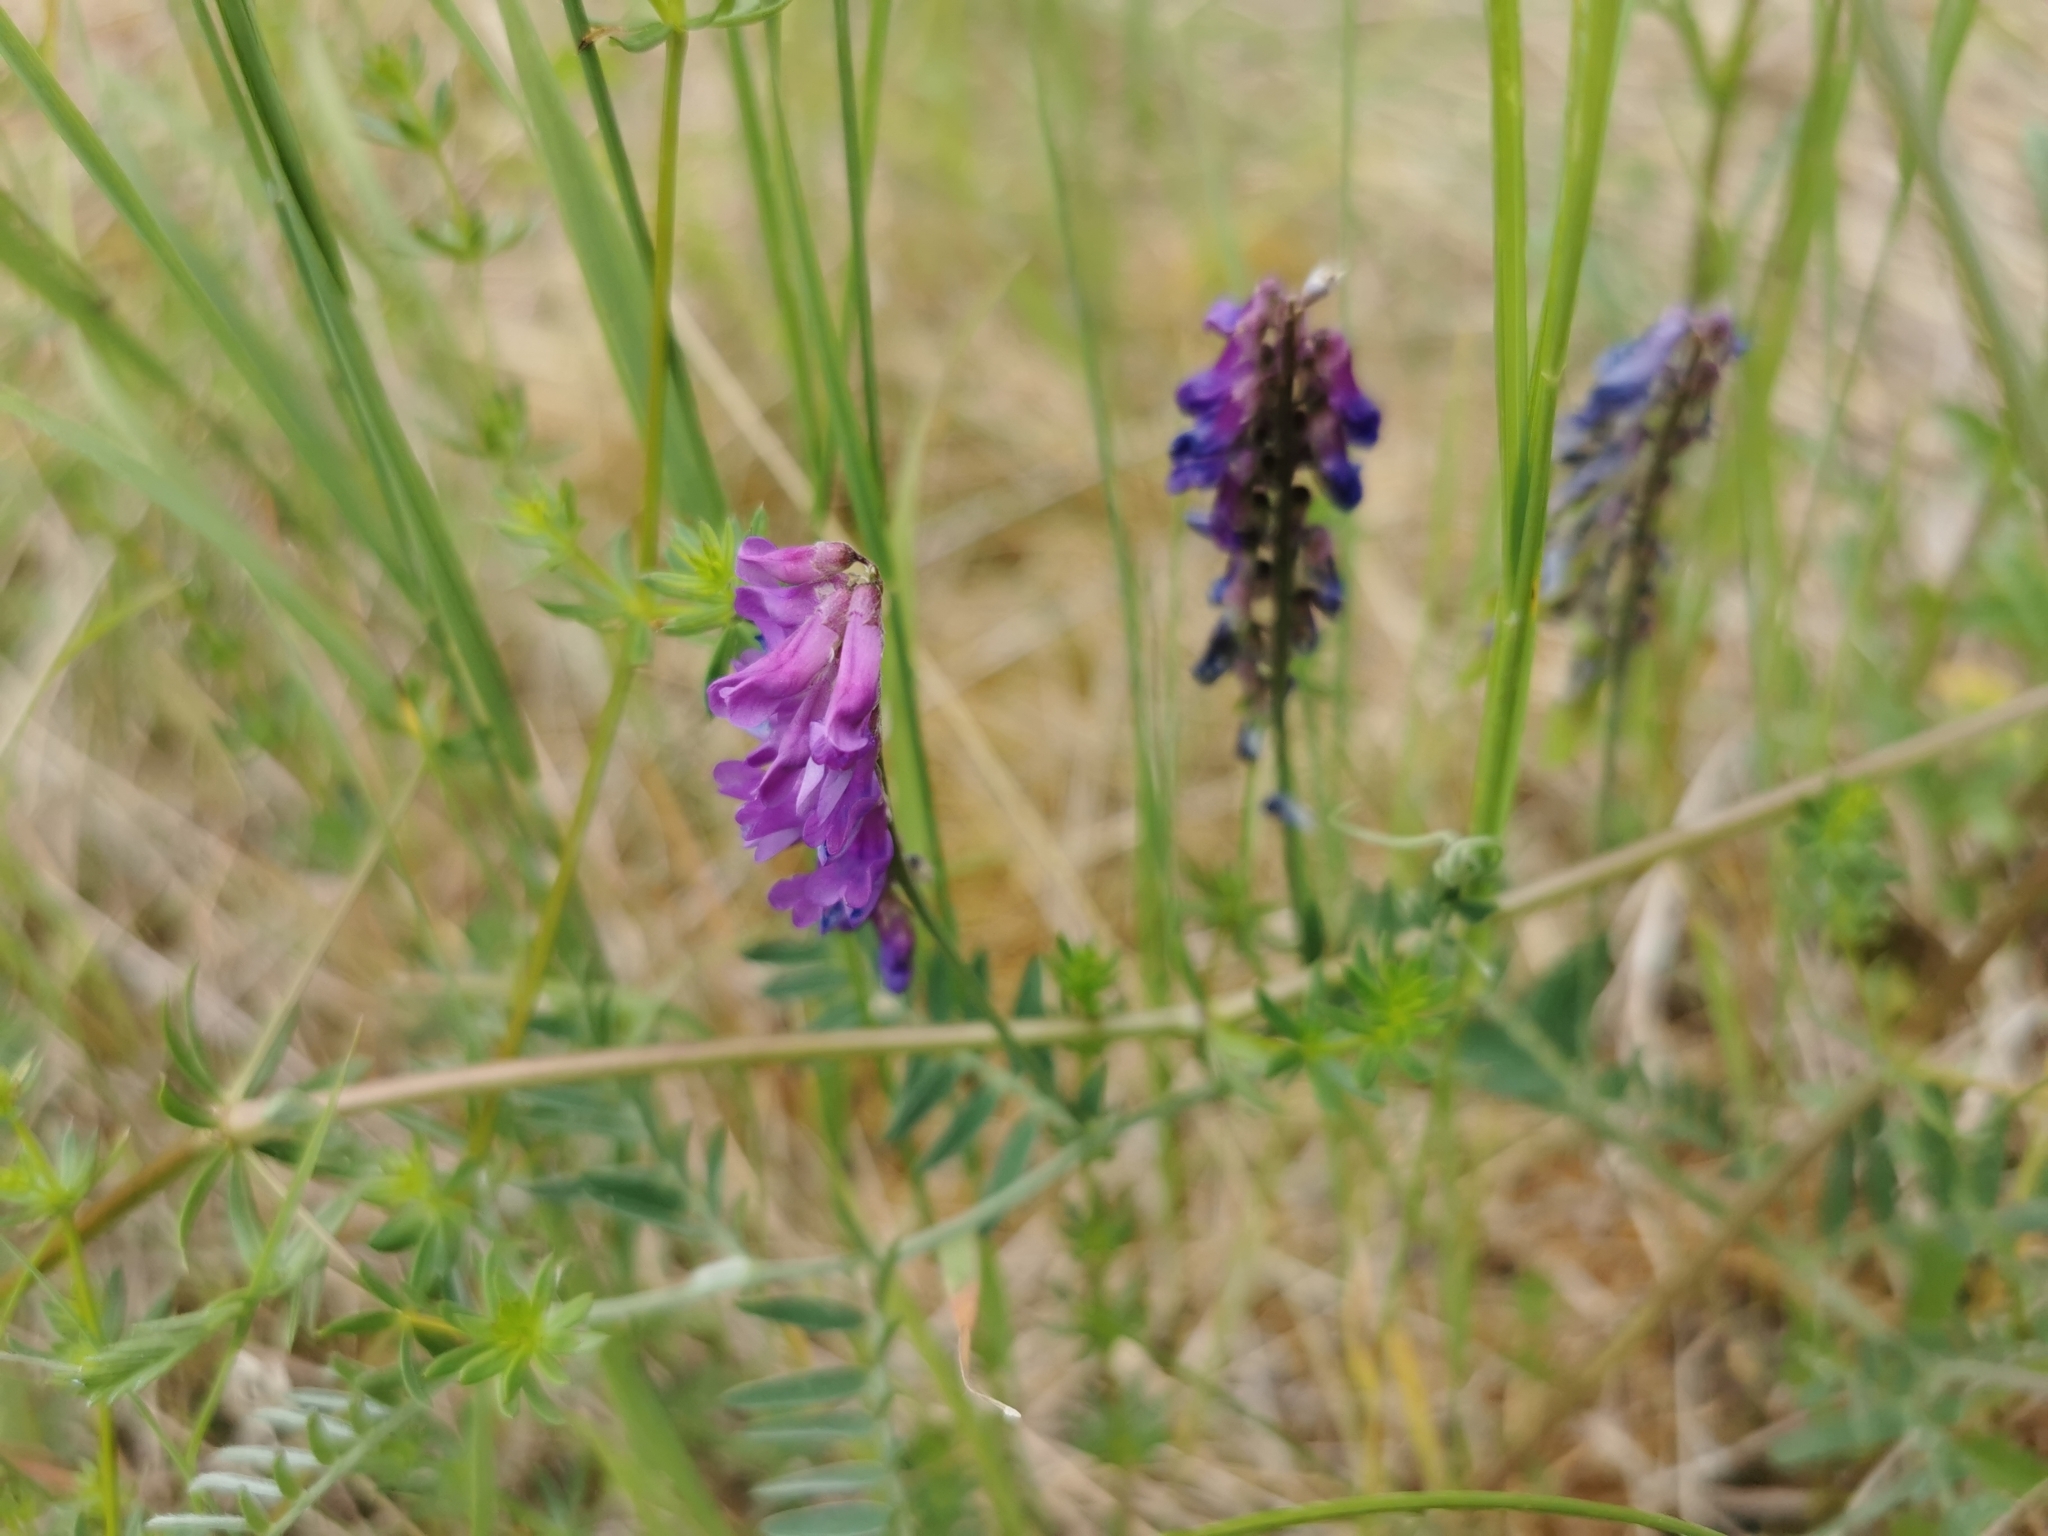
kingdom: Plantae
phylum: Tracheophyta
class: Magnoliopsida
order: Fabales
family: Fabaceae
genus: Vicia
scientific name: Vicia cracca
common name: Bird vetch
